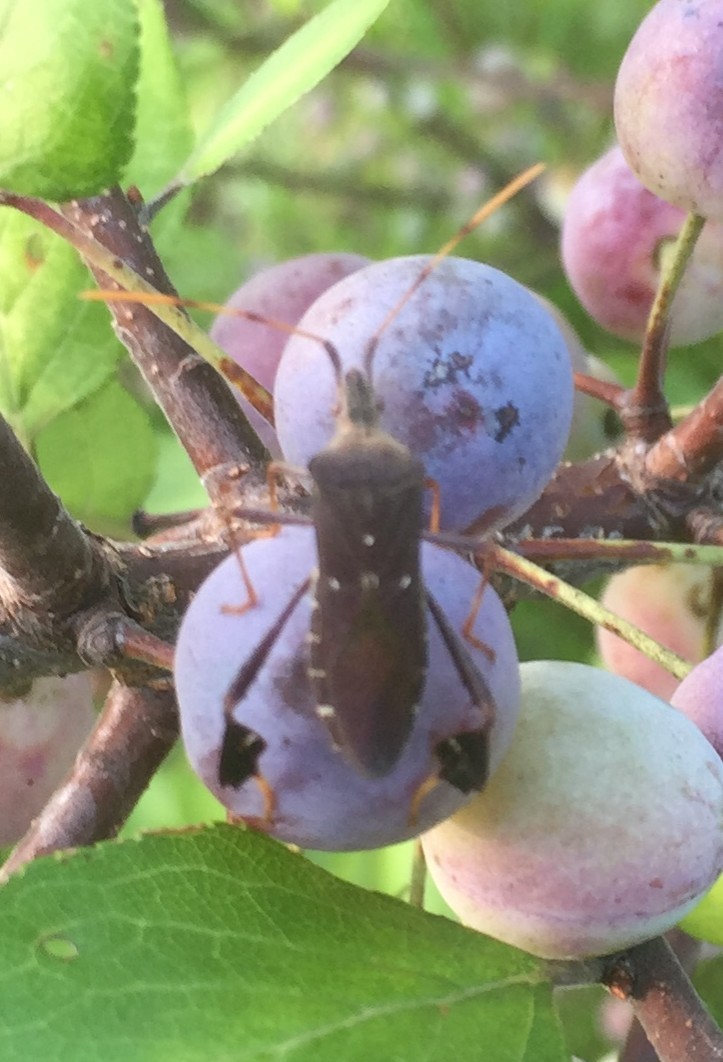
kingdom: Animalia
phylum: Arthropoda
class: Insecta
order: Hemiptera
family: Coreidae
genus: Leptoglossus
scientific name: Leptoglossus oppositus
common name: Northern leaf-footed bug
